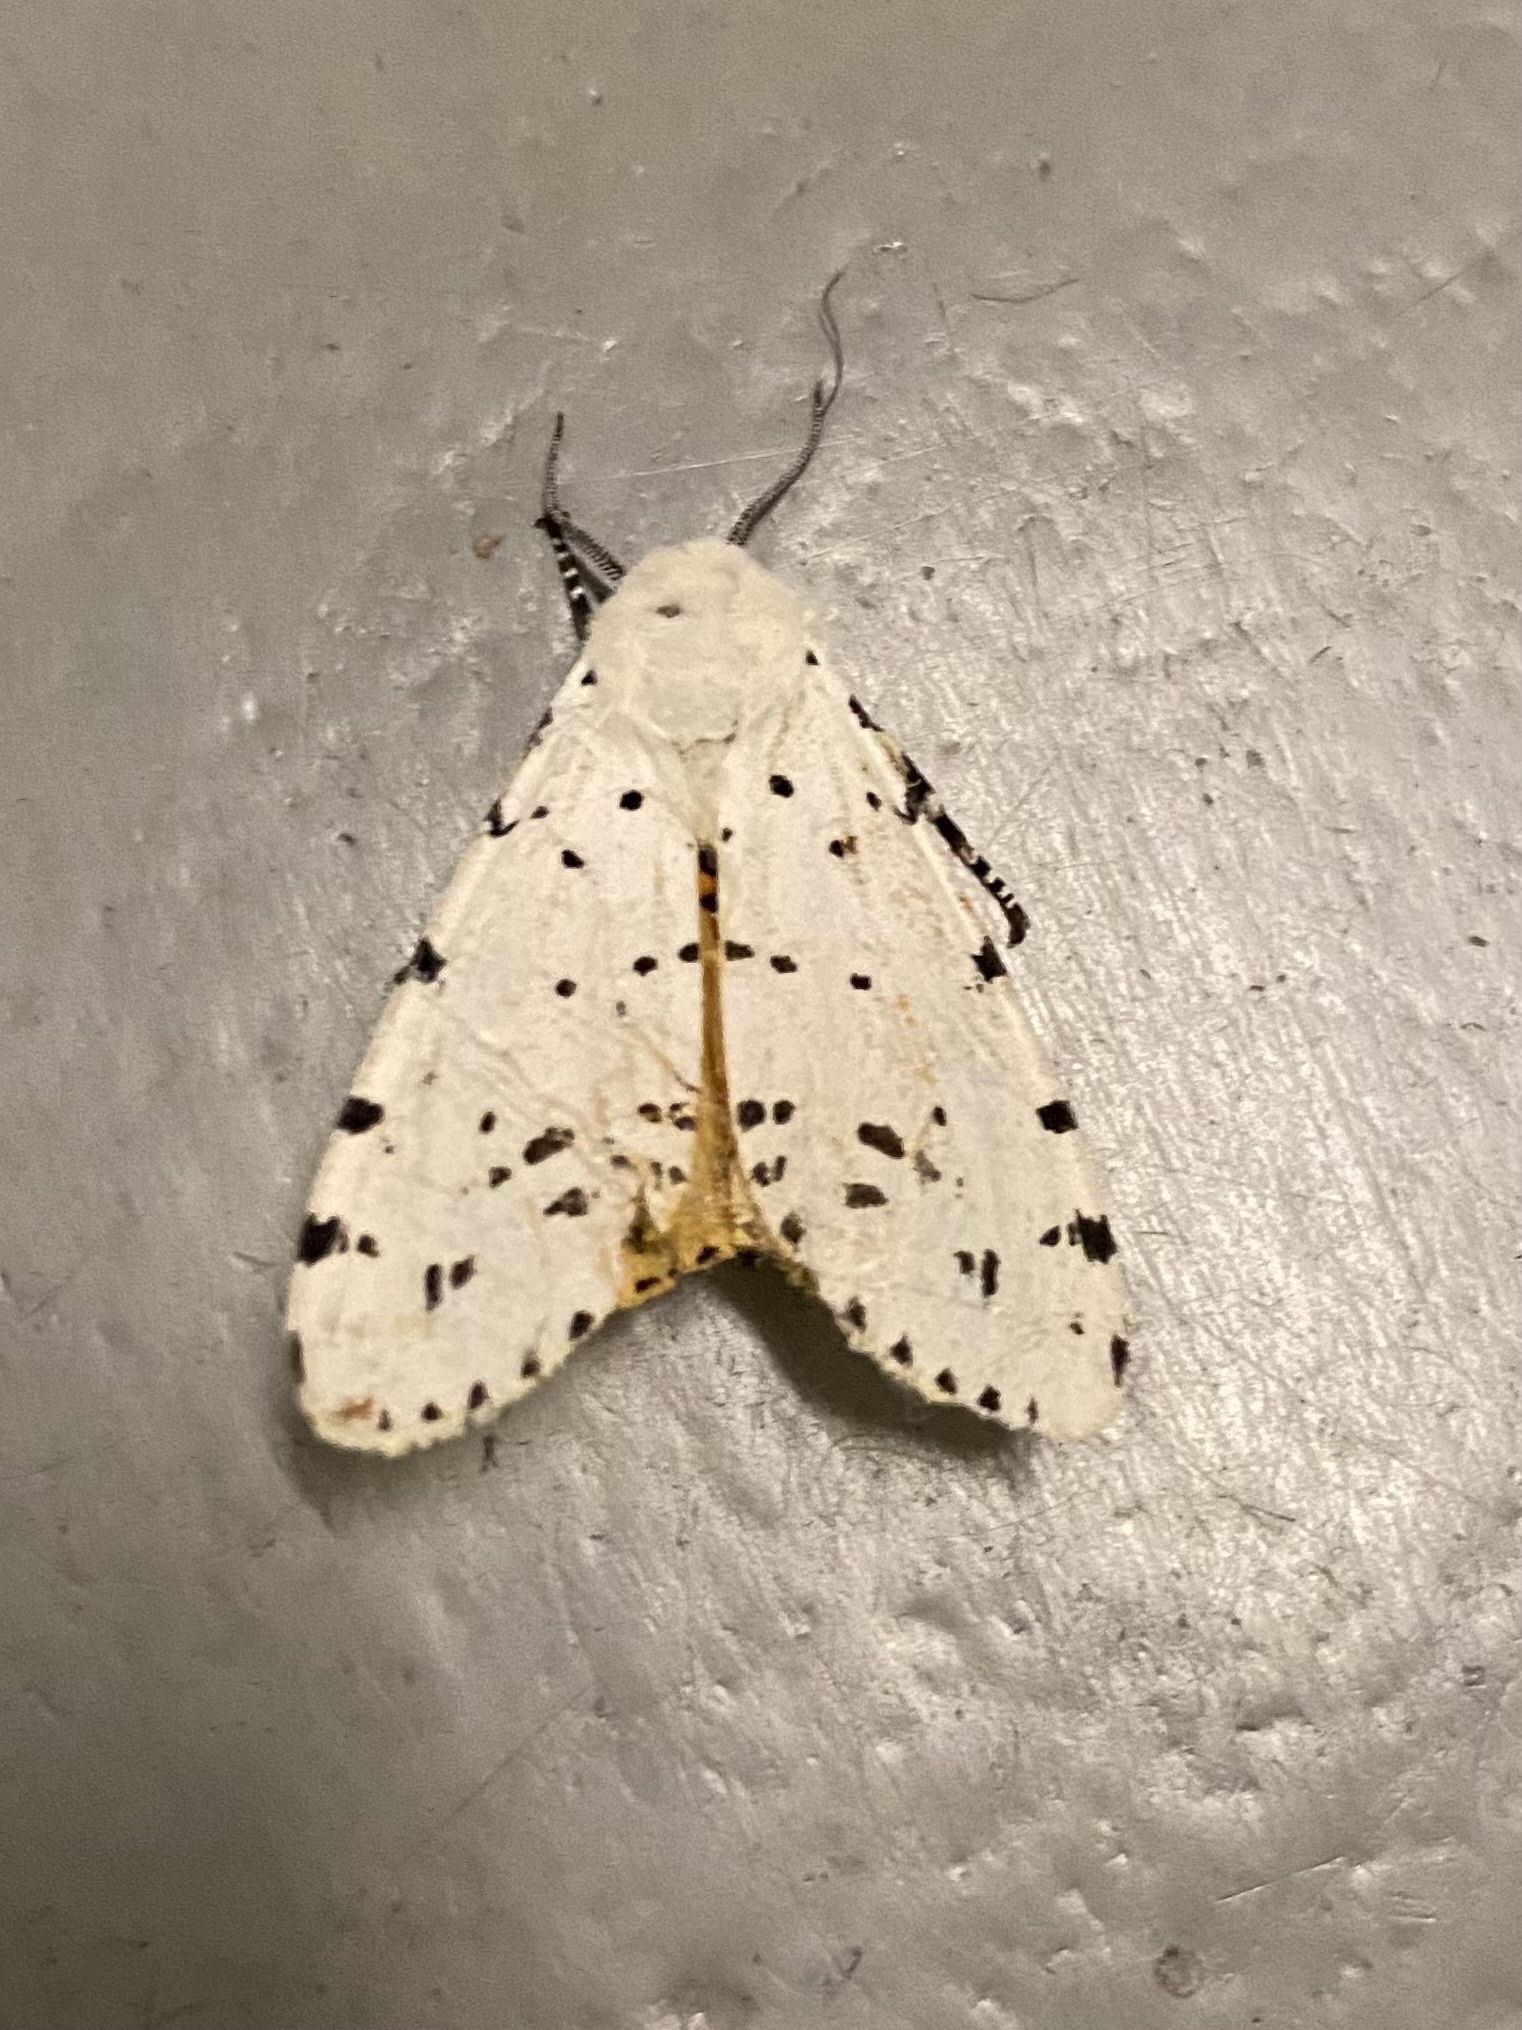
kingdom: Animalia
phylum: Arthropoda
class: Insecta
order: Lepidoptera
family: Erebidae
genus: Estigmene
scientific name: Estigmene acrea
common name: Salt marsh moth
